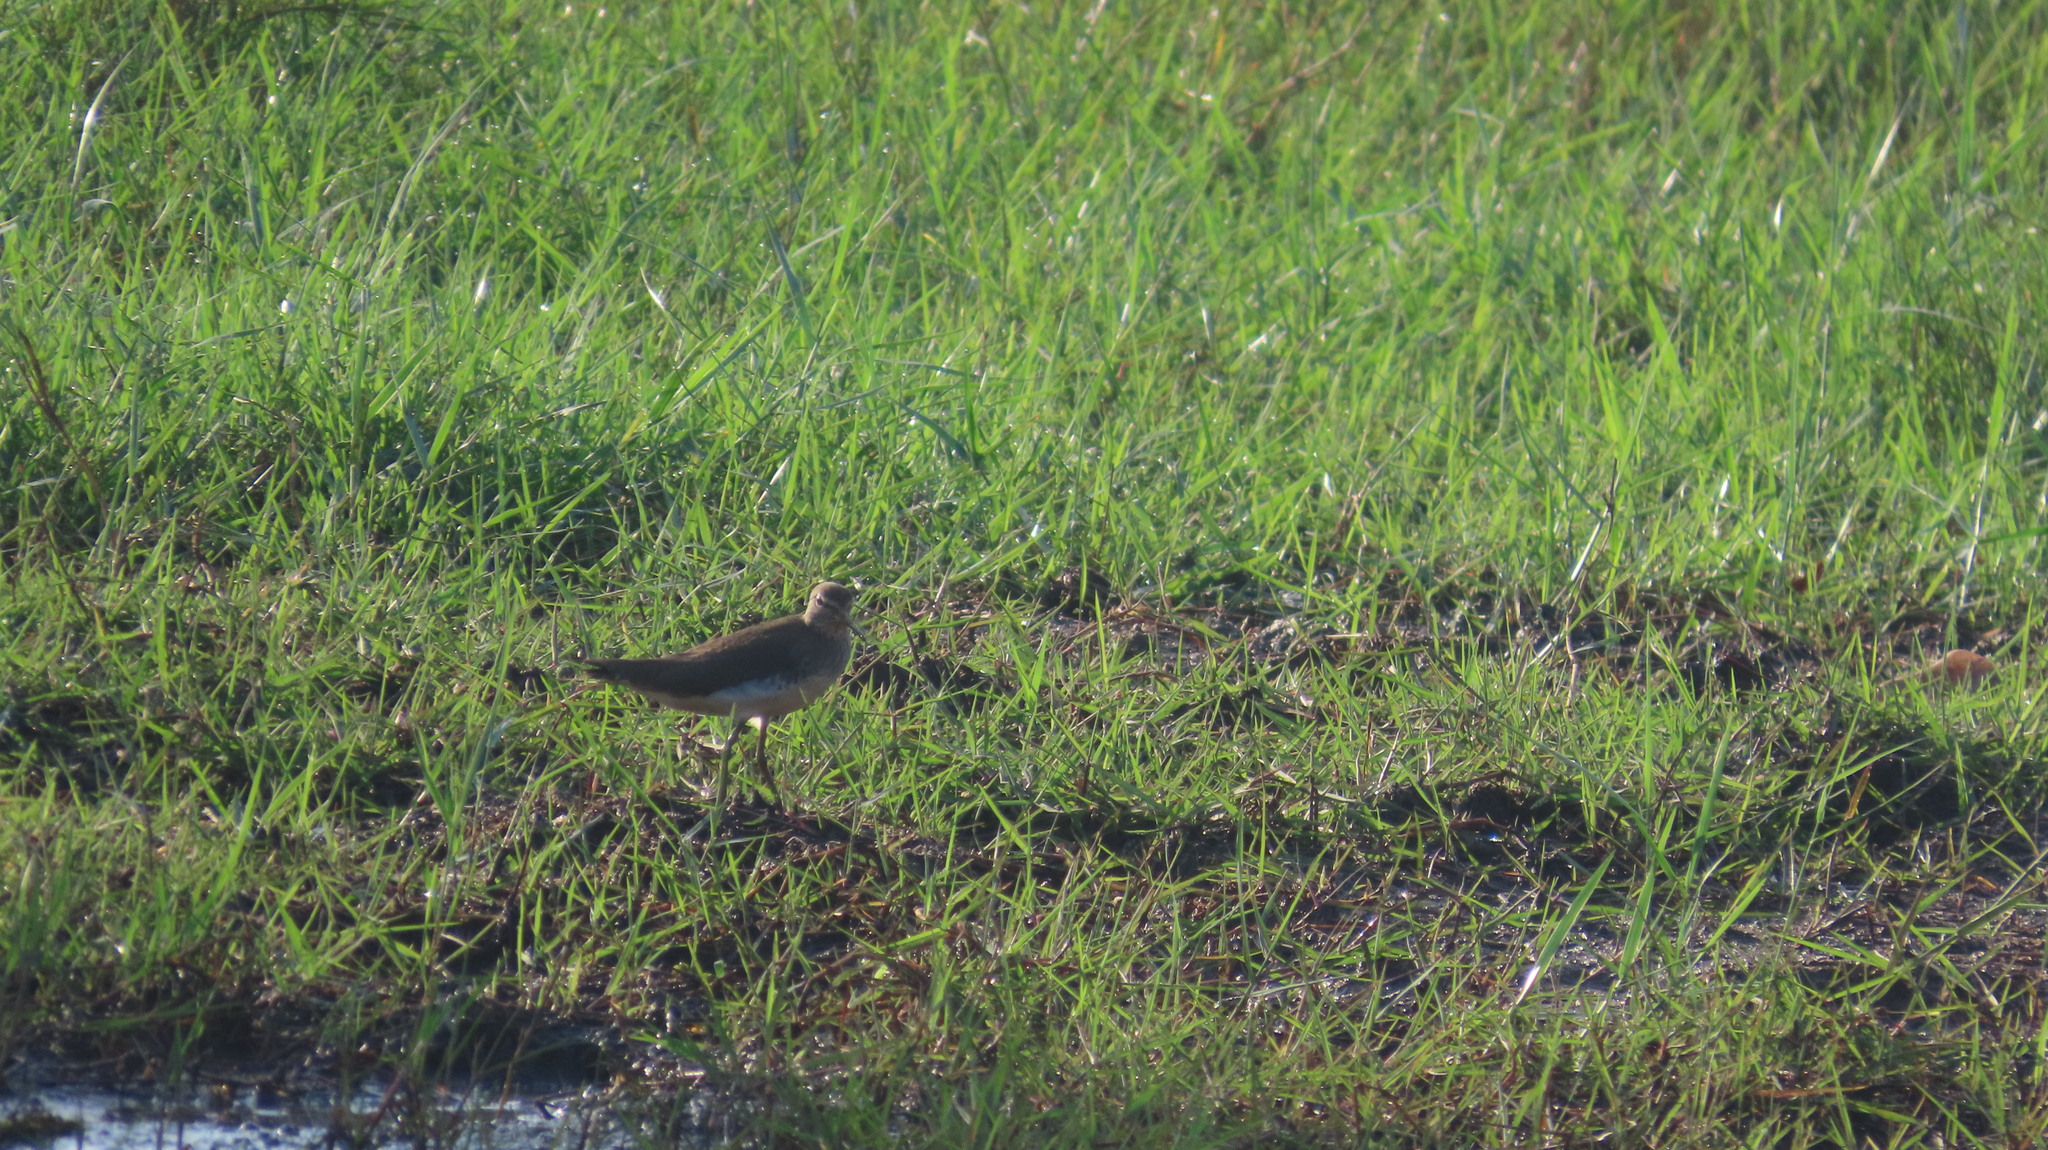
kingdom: Animalia
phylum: Chordata
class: Aves
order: Charadriiformes
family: Scolopacidae
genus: Tringa
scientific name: Tringa glareola
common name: Wood sandpiper
